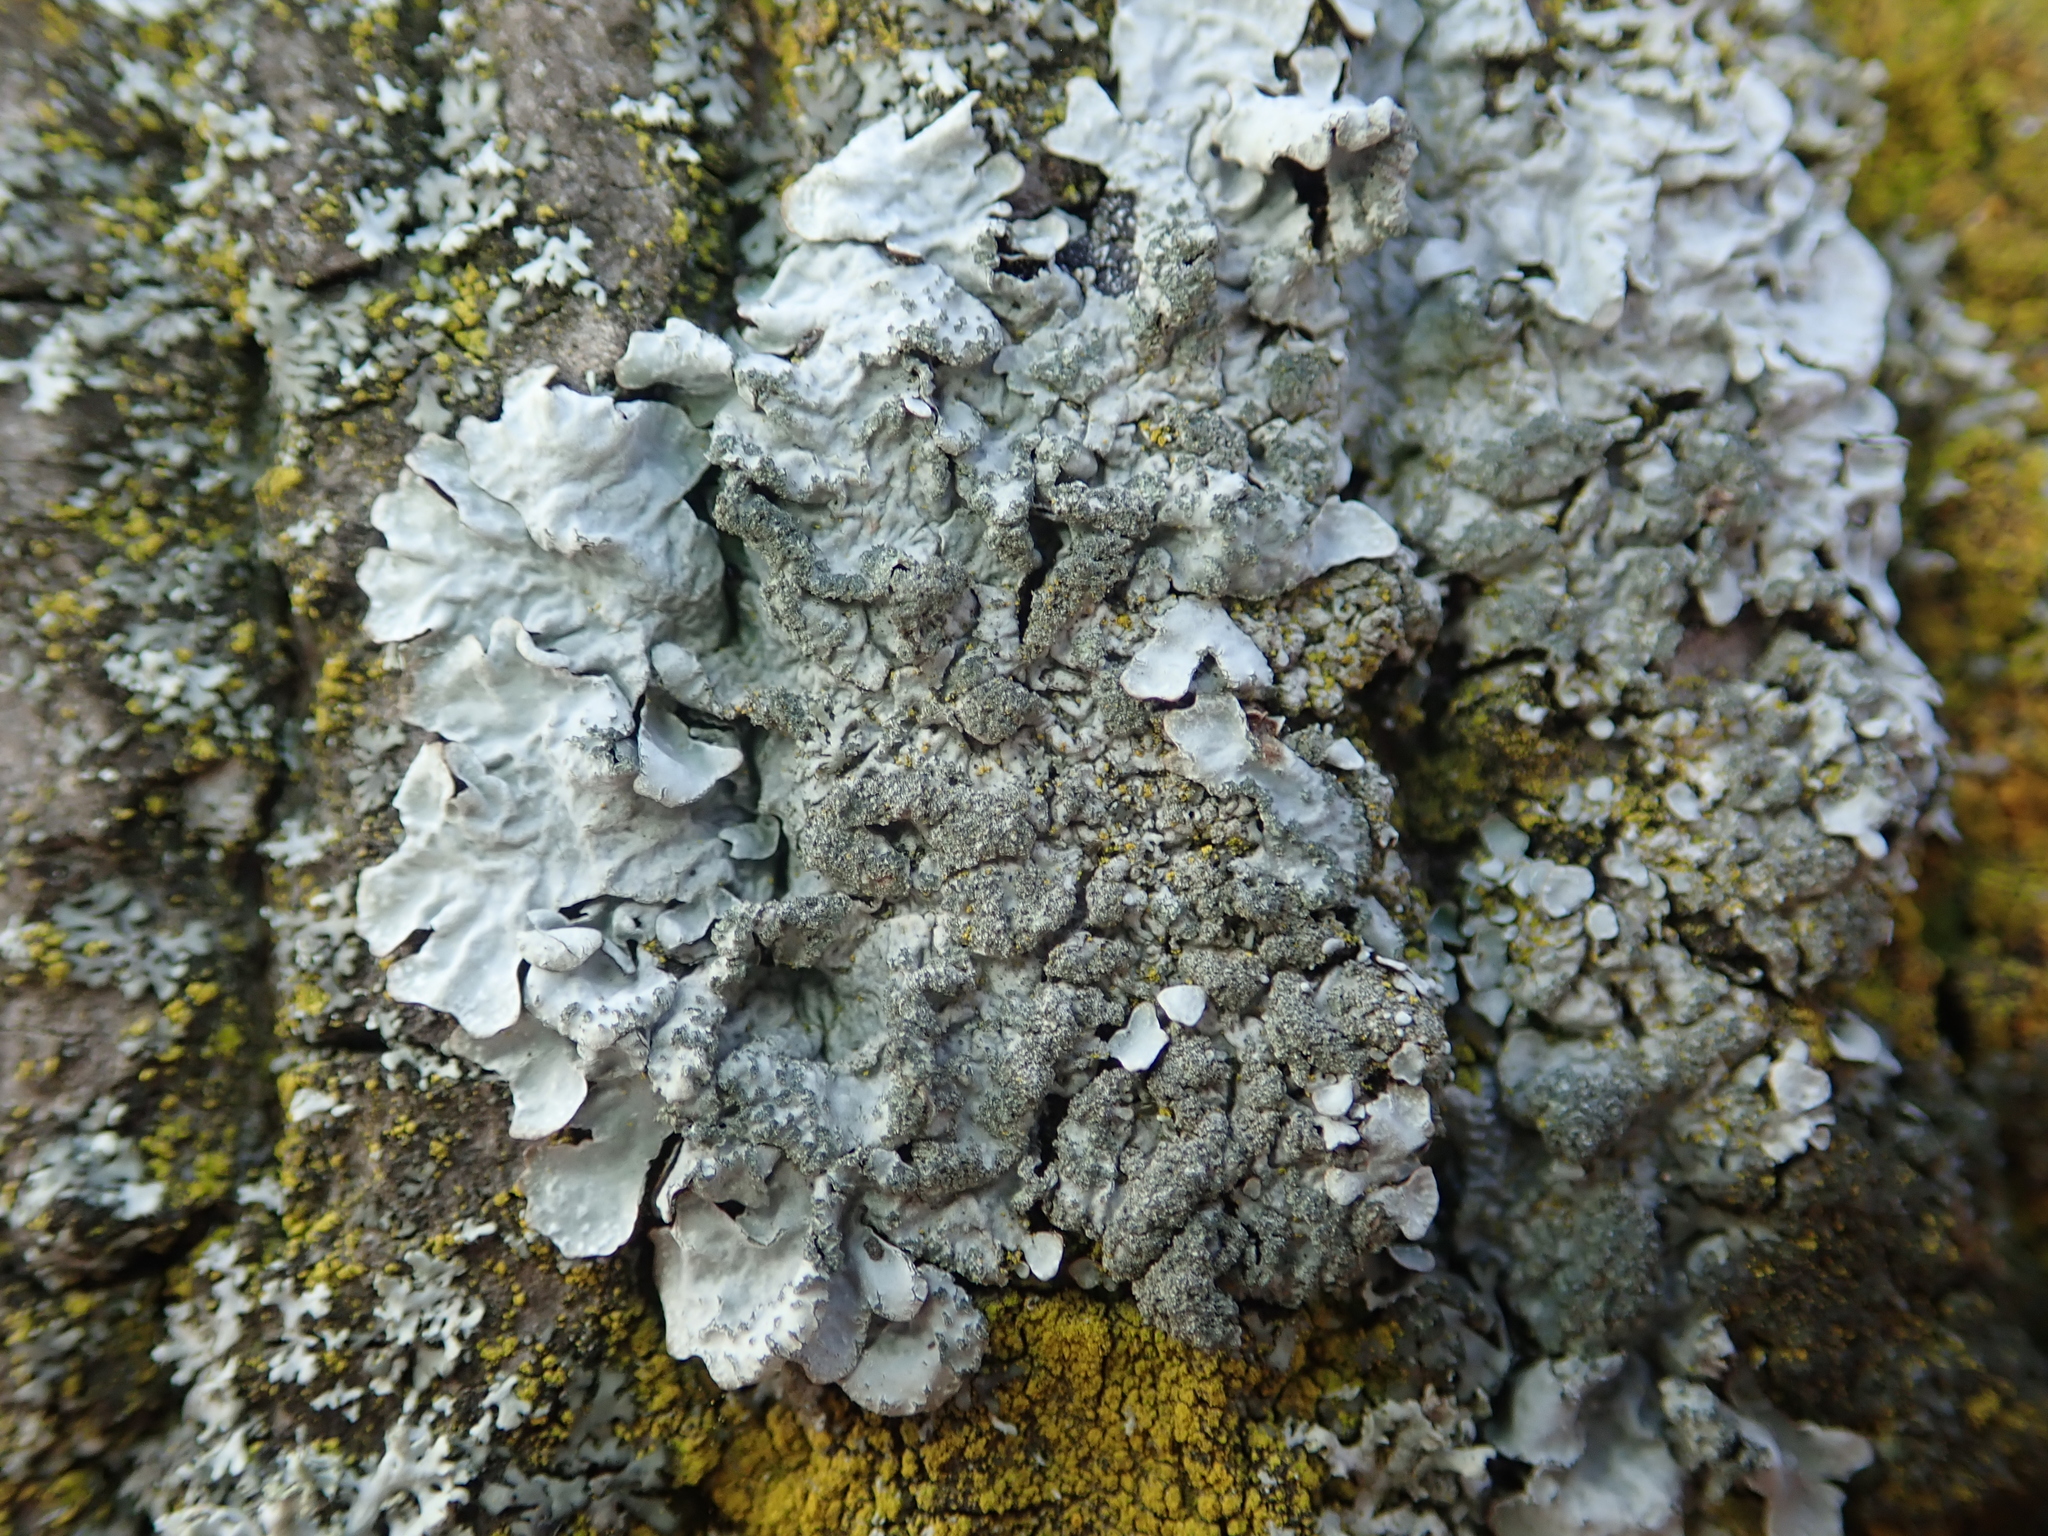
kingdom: Fungi
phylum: Ascomycota
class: Lecanoromycetes
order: Lecanorales
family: Parmeliaceae
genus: Parmelia
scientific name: Parmelia sulcata
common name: Netted shield lichen
